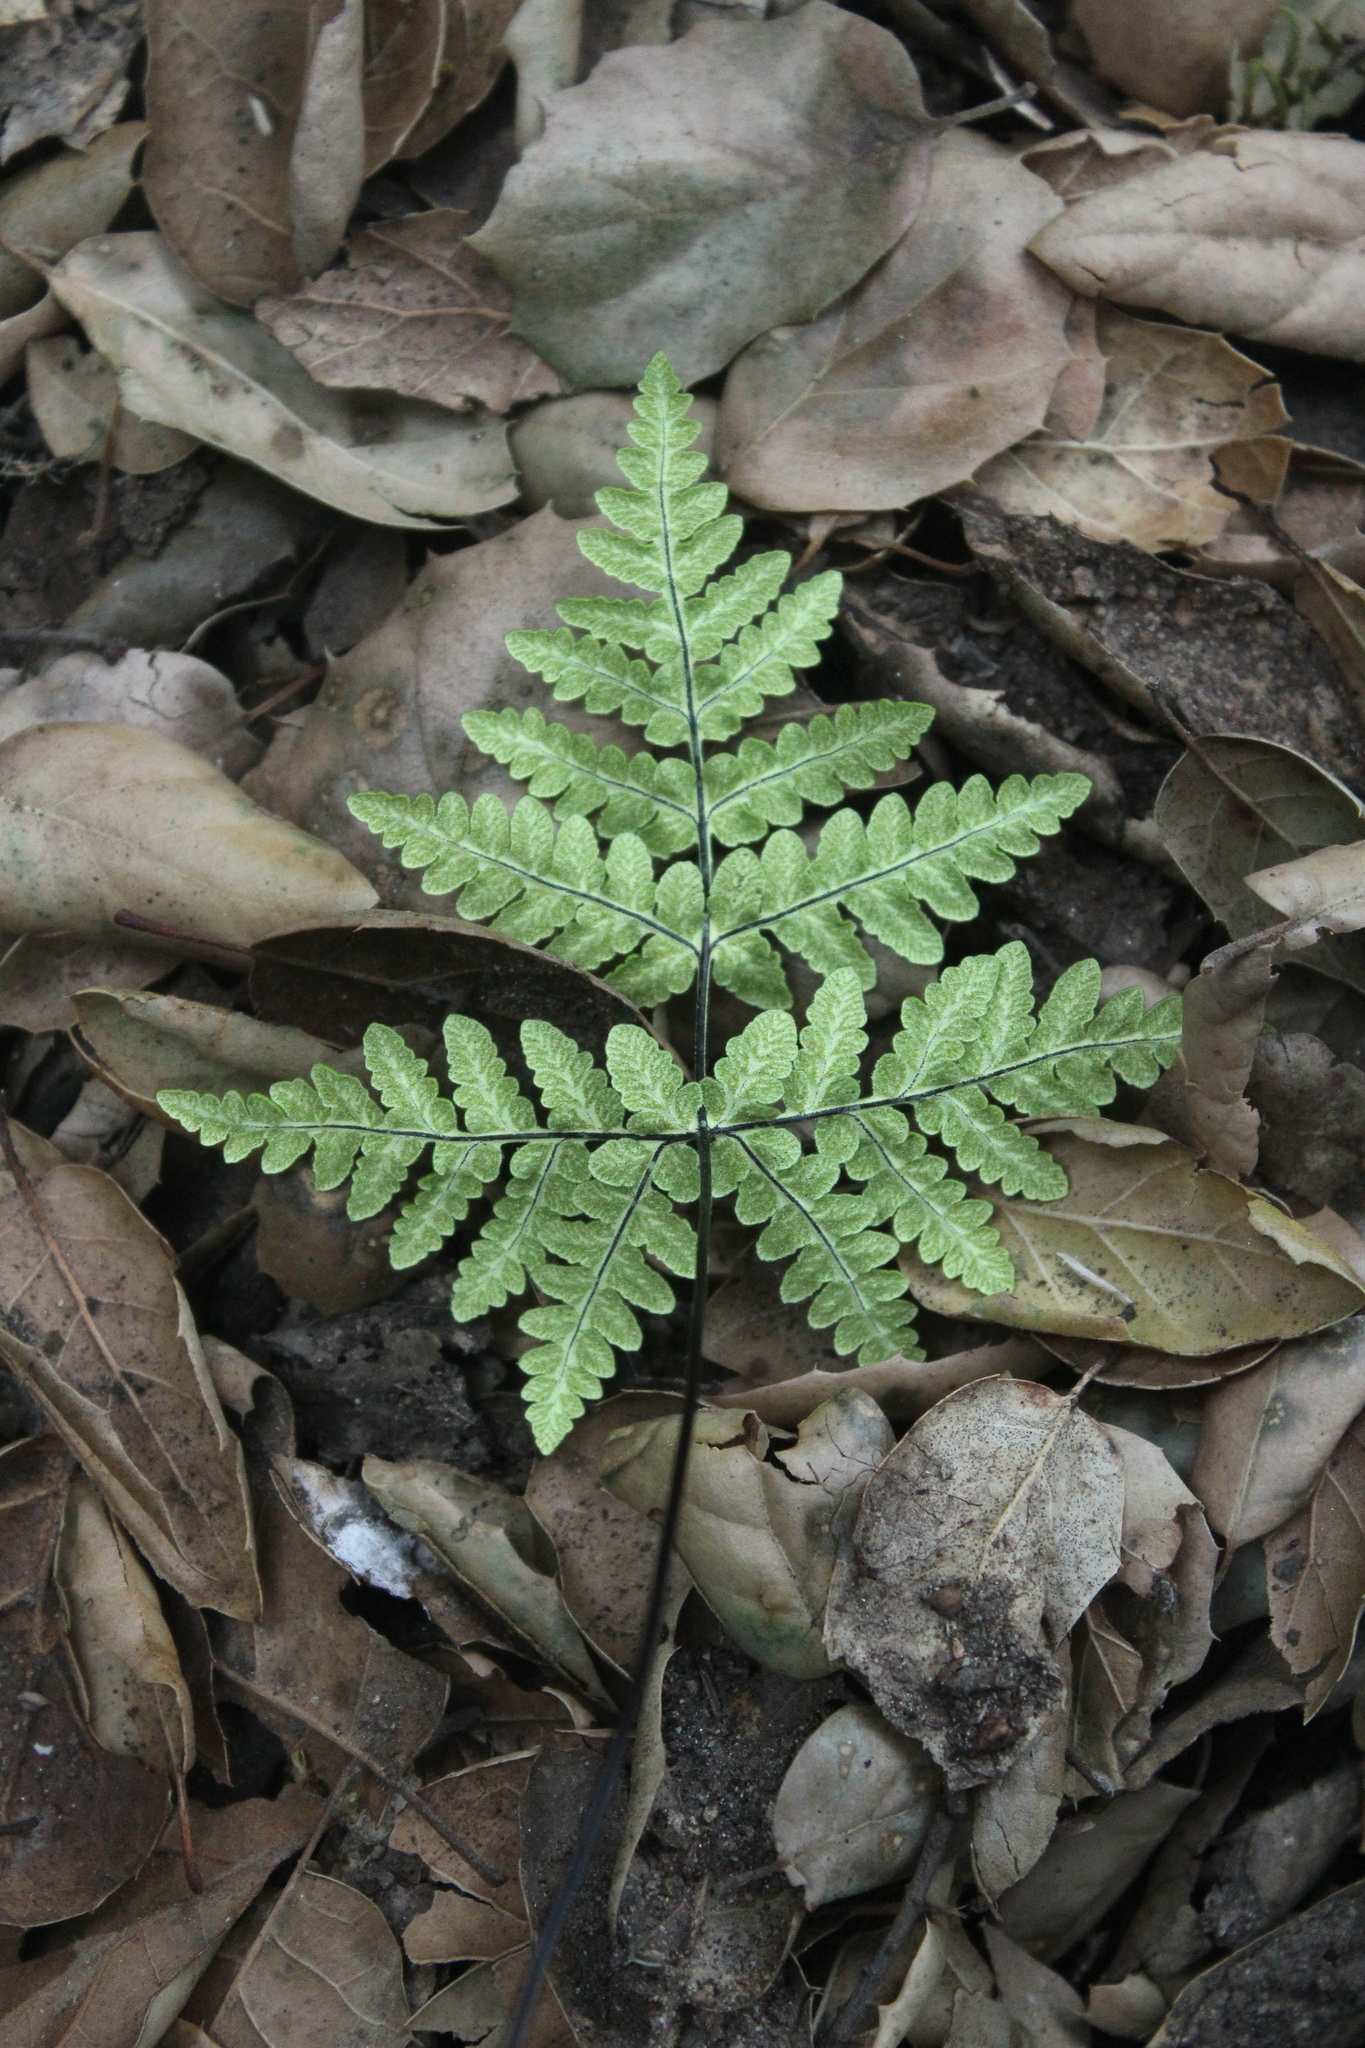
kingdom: Plantae
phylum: Tracheophyta
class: Polypodiopsida
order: Polypodiales
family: Pteridaceae
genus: Pentagramma
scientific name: Pentagramma triangularis
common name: Gold fern
